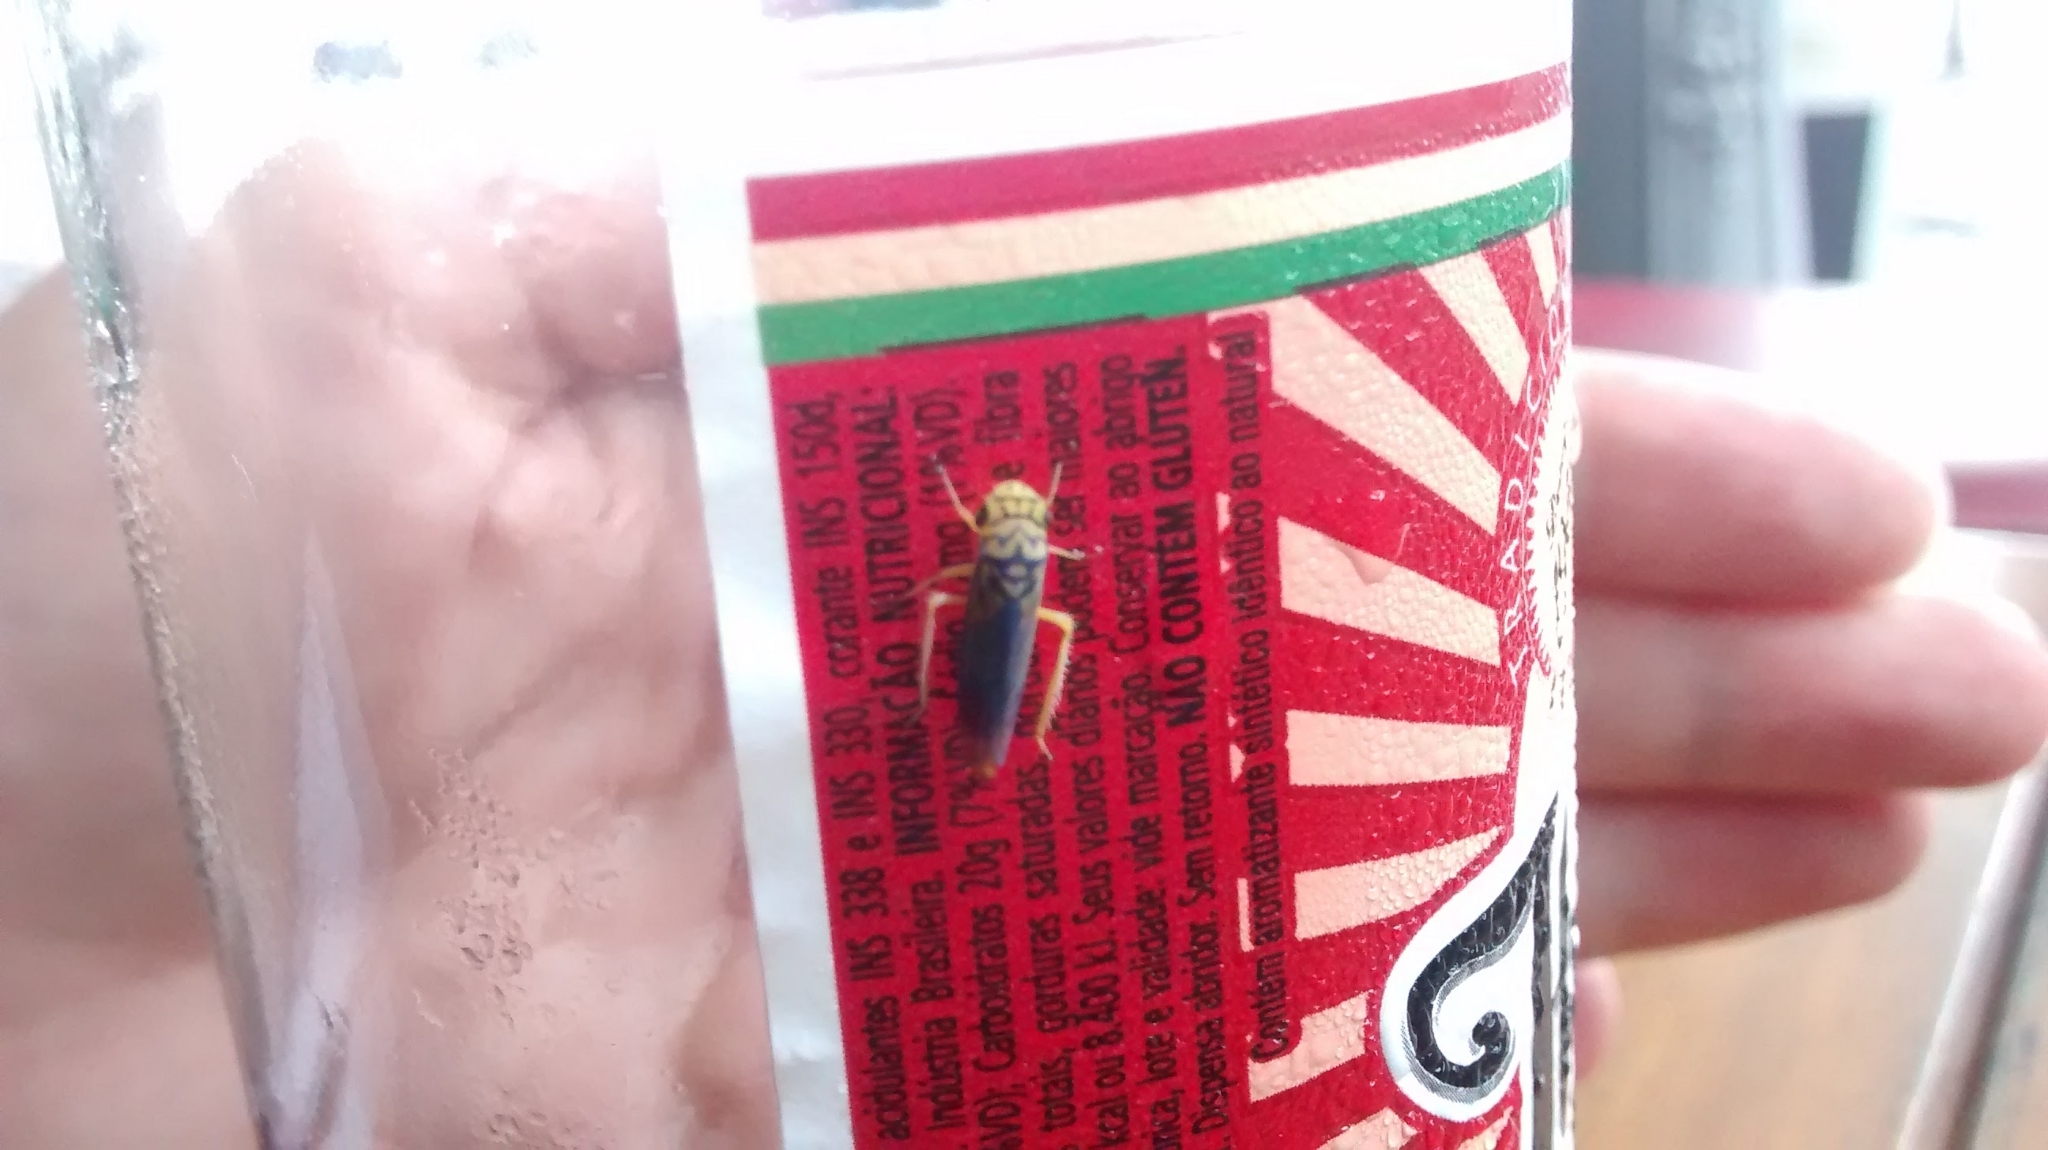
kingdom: Animalia
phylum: Arthropoda
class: Insecta
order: Hemiptera
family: Cicadellidae
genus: Dilobopterus
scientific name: Dilobopterus costalimai
